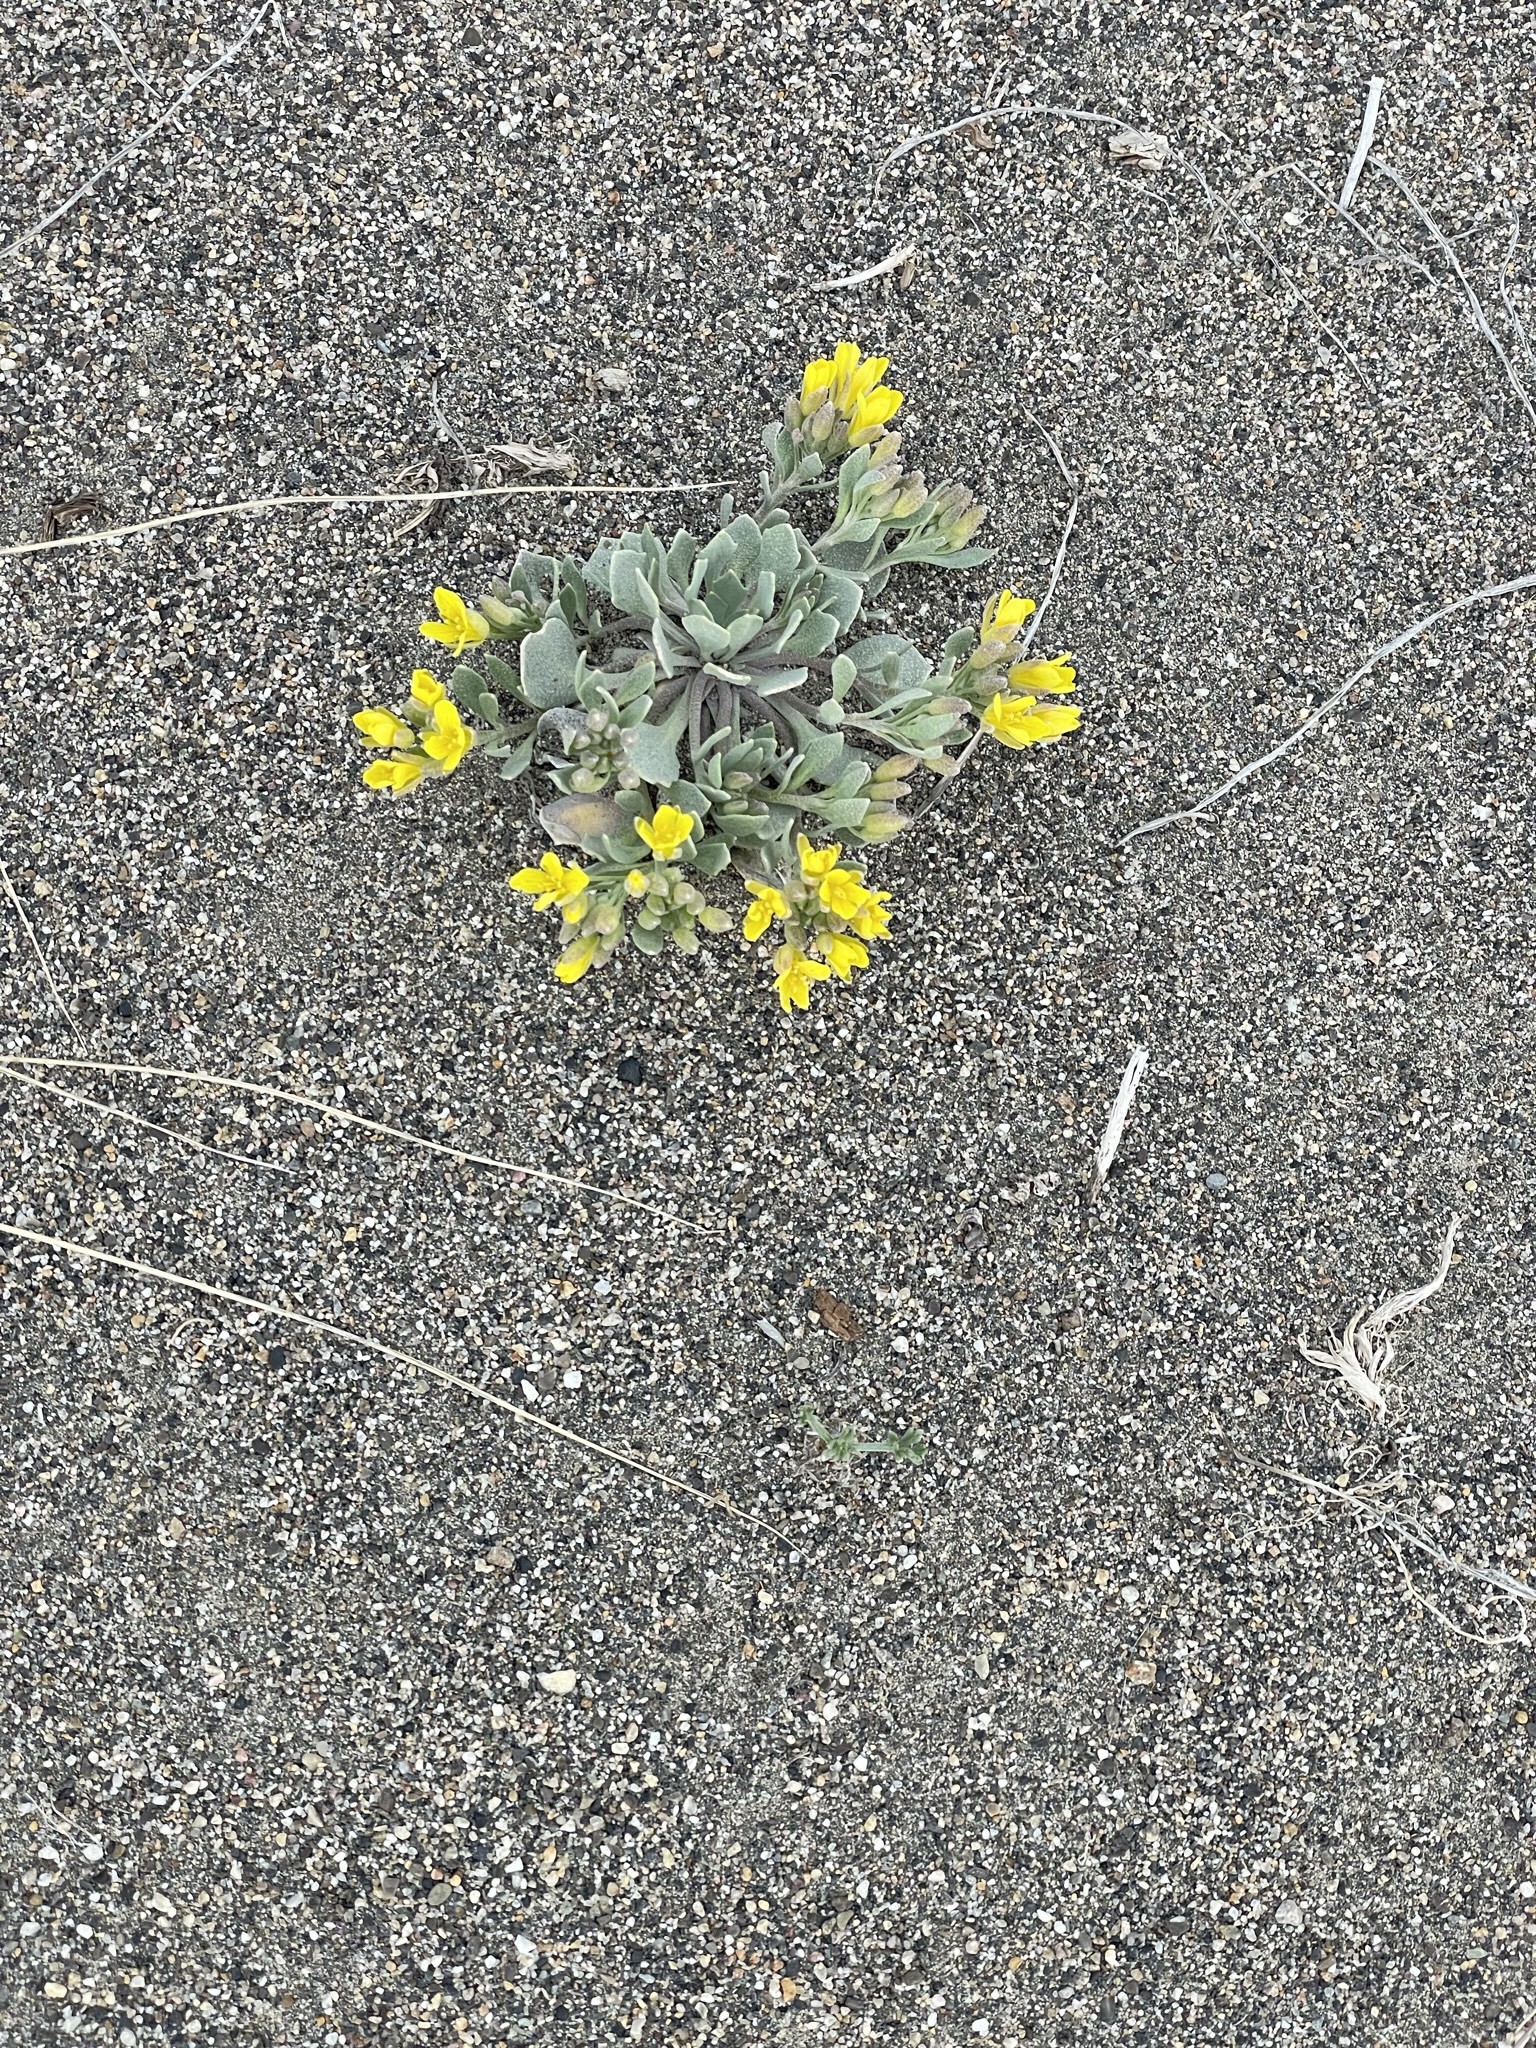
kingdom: Plantae
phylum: Tracheophyta
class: Magnoliopsida
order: Brassicales
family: Brassicaceae
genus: Physaria
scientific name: Physaria didymocarpa
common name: Common twinpod
